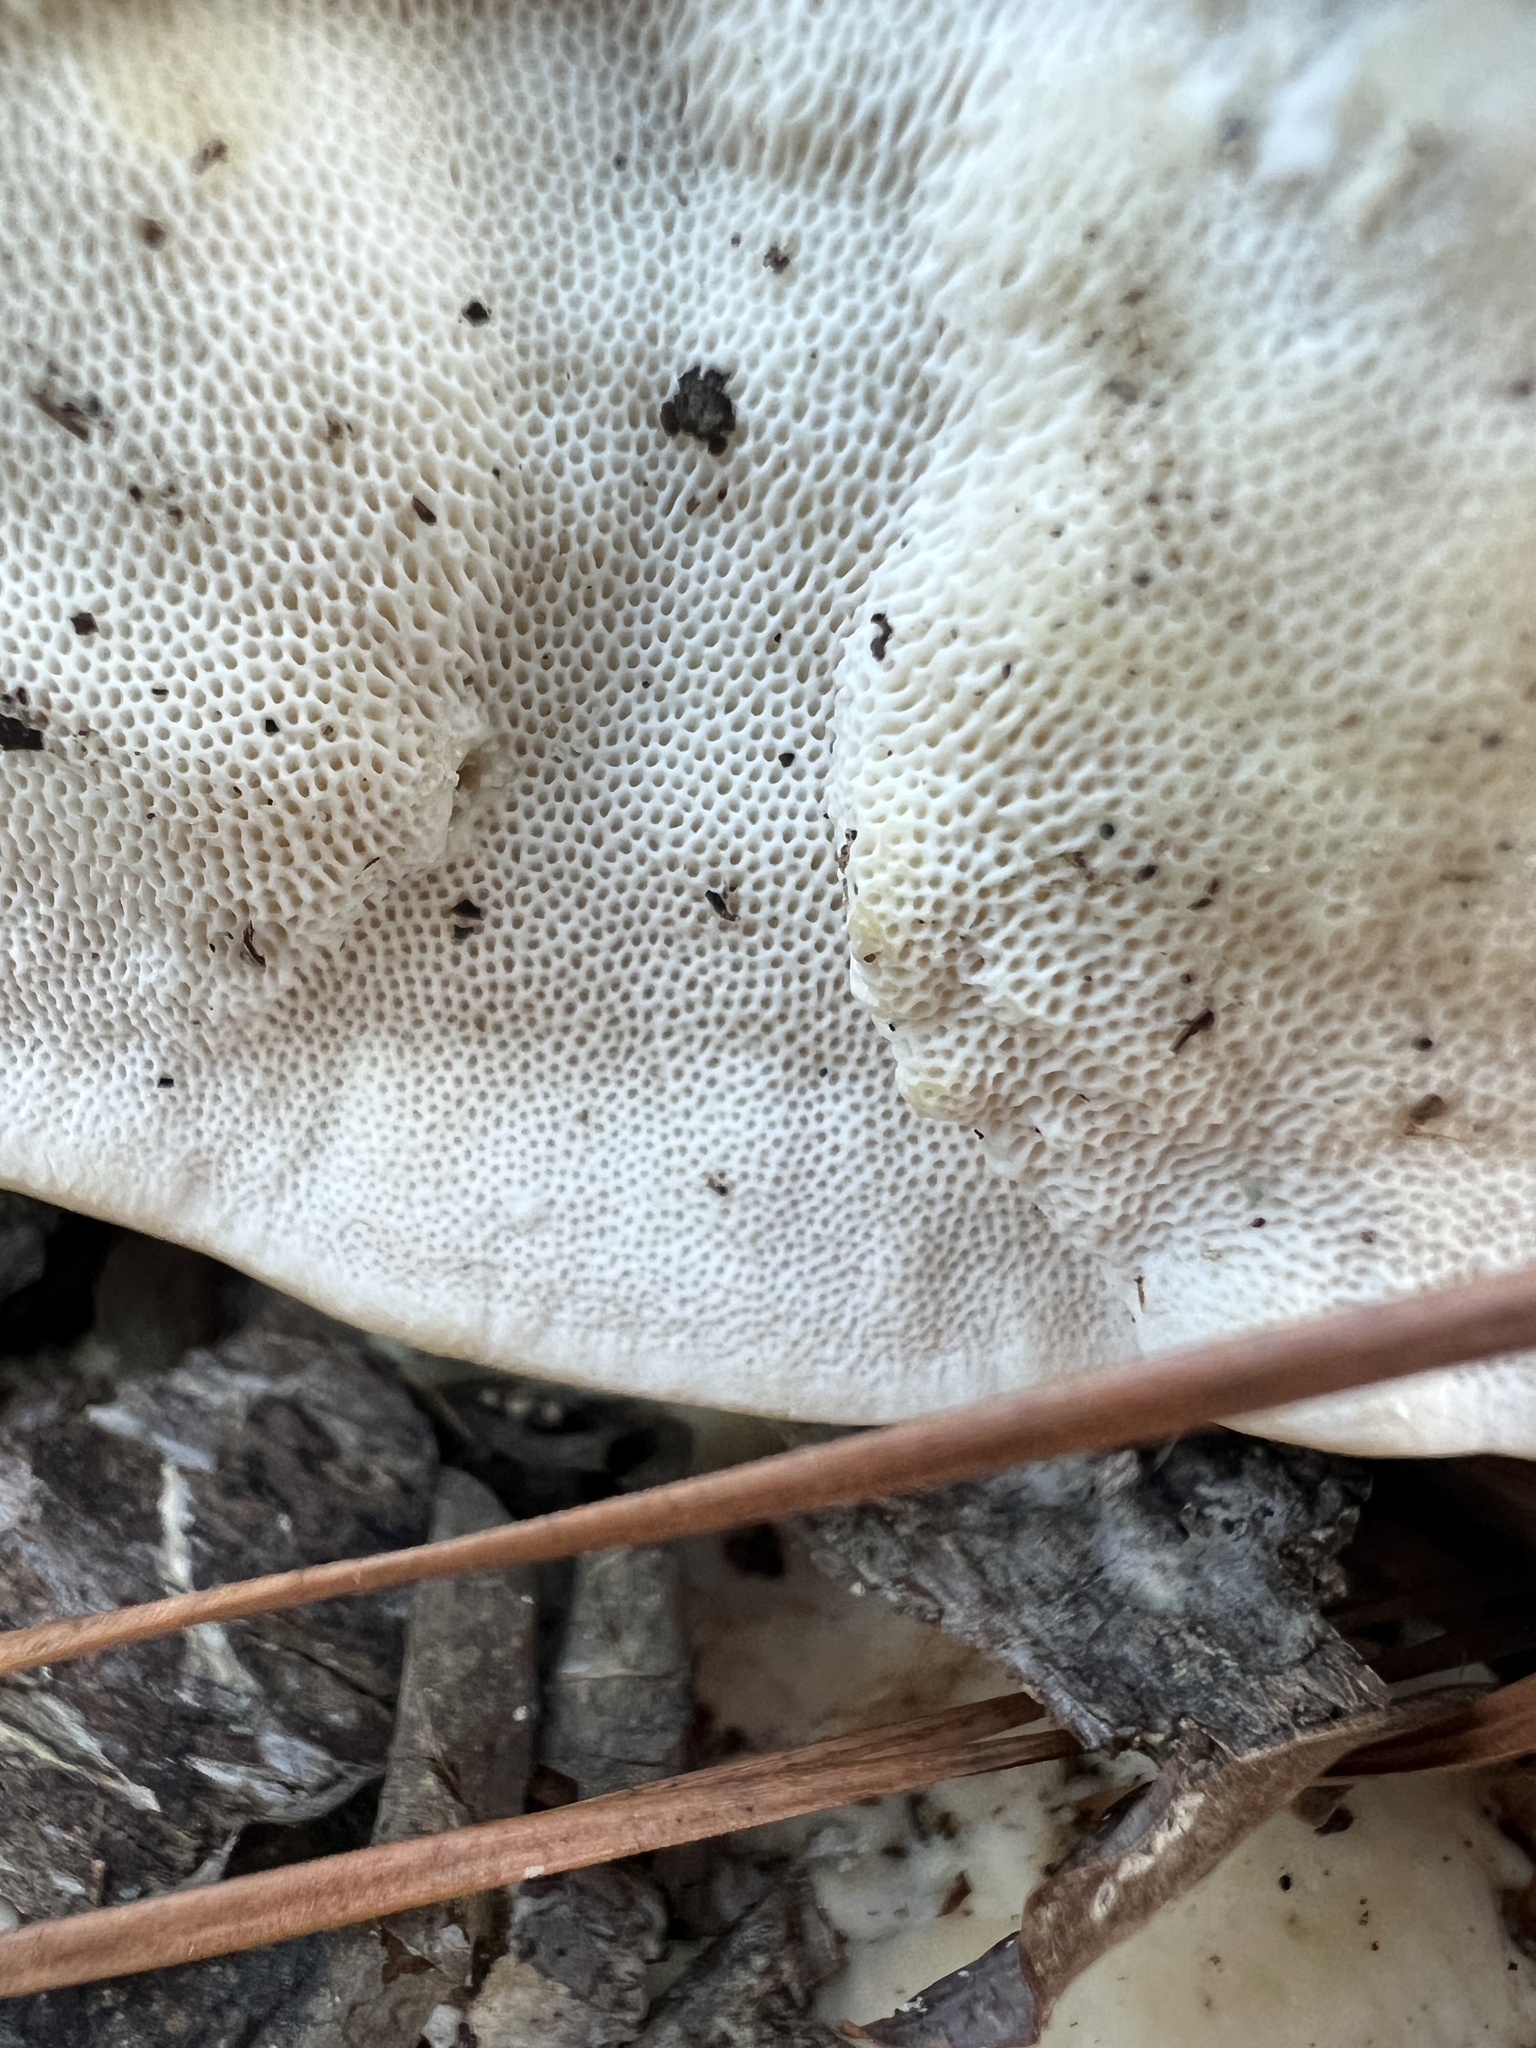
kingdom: Fungi
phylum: Basidiomycota
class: Agaricomycetes
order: Polyporales
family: Polyporaceae
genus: Trametes
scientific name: Trametes lactinea
